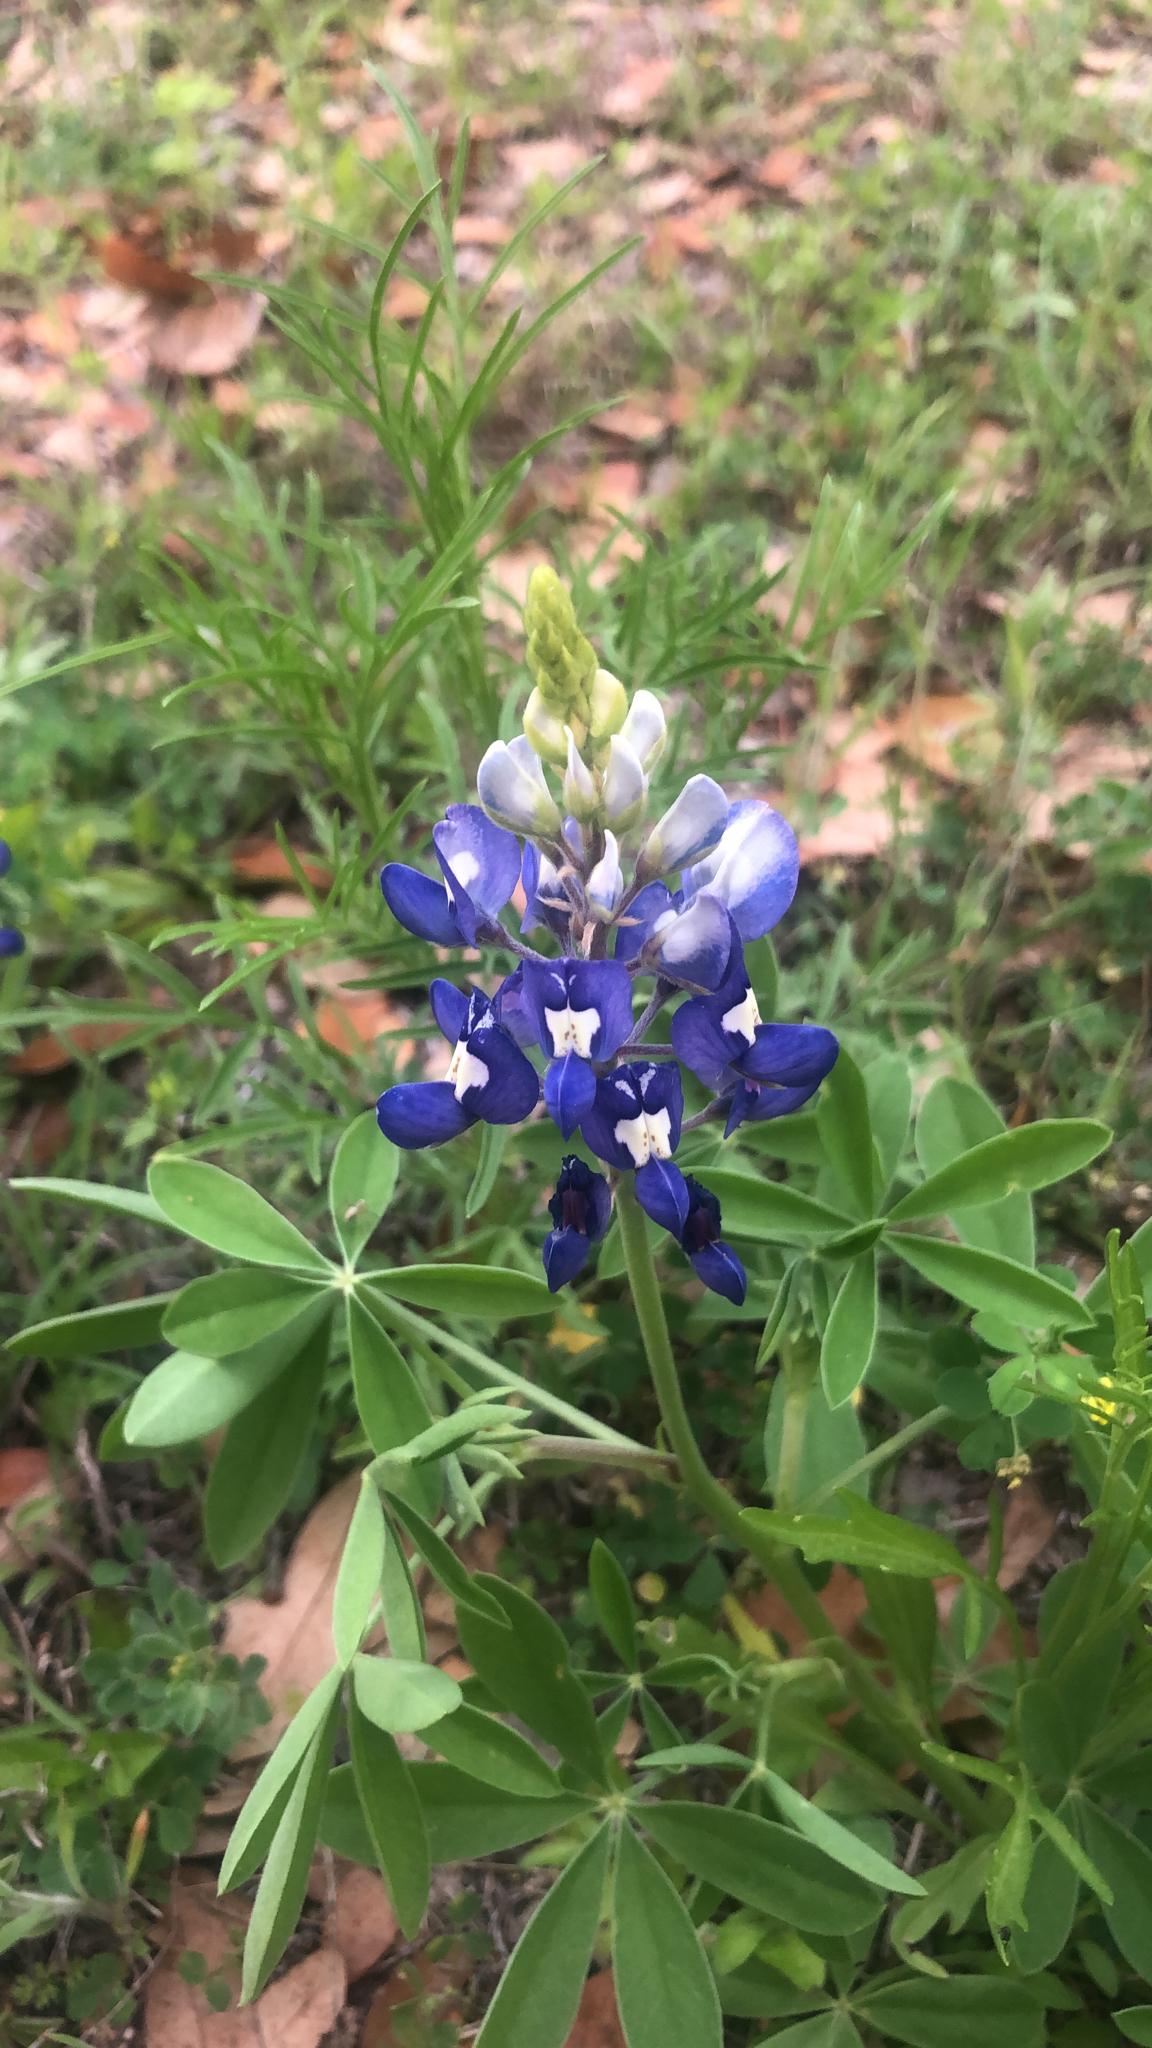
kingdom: Plantae
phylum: Tracheophyta
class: Magnoliopsida
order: Fabales
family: Fabaceae
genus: Lupinus
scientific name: Lupinus texensis
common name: Texas bluebonnet
